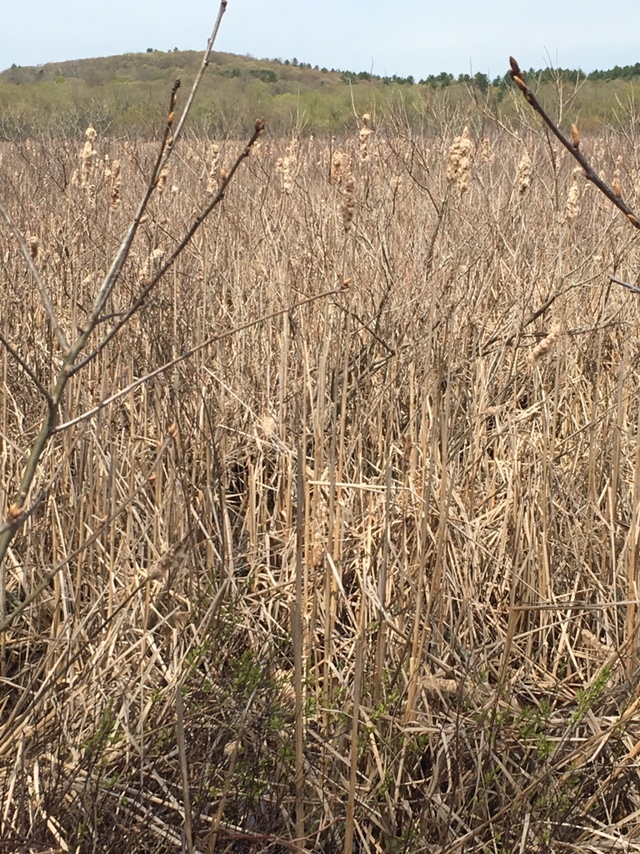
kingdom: Plantae
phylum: Tracheophyta
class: Liliopsida
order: Poales
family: Typhaceae
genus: Typha
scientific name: Typha latifolia
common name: Broadleaf cattail
